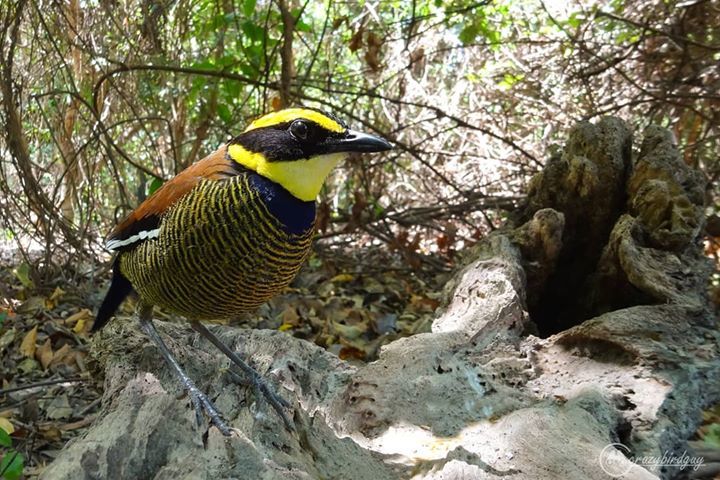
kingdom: Animalia
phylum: Chordata
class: Aves
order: Passeriformes
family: Pittidae
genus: Pitta
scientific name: Pitta guajana
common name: Banded pitta
